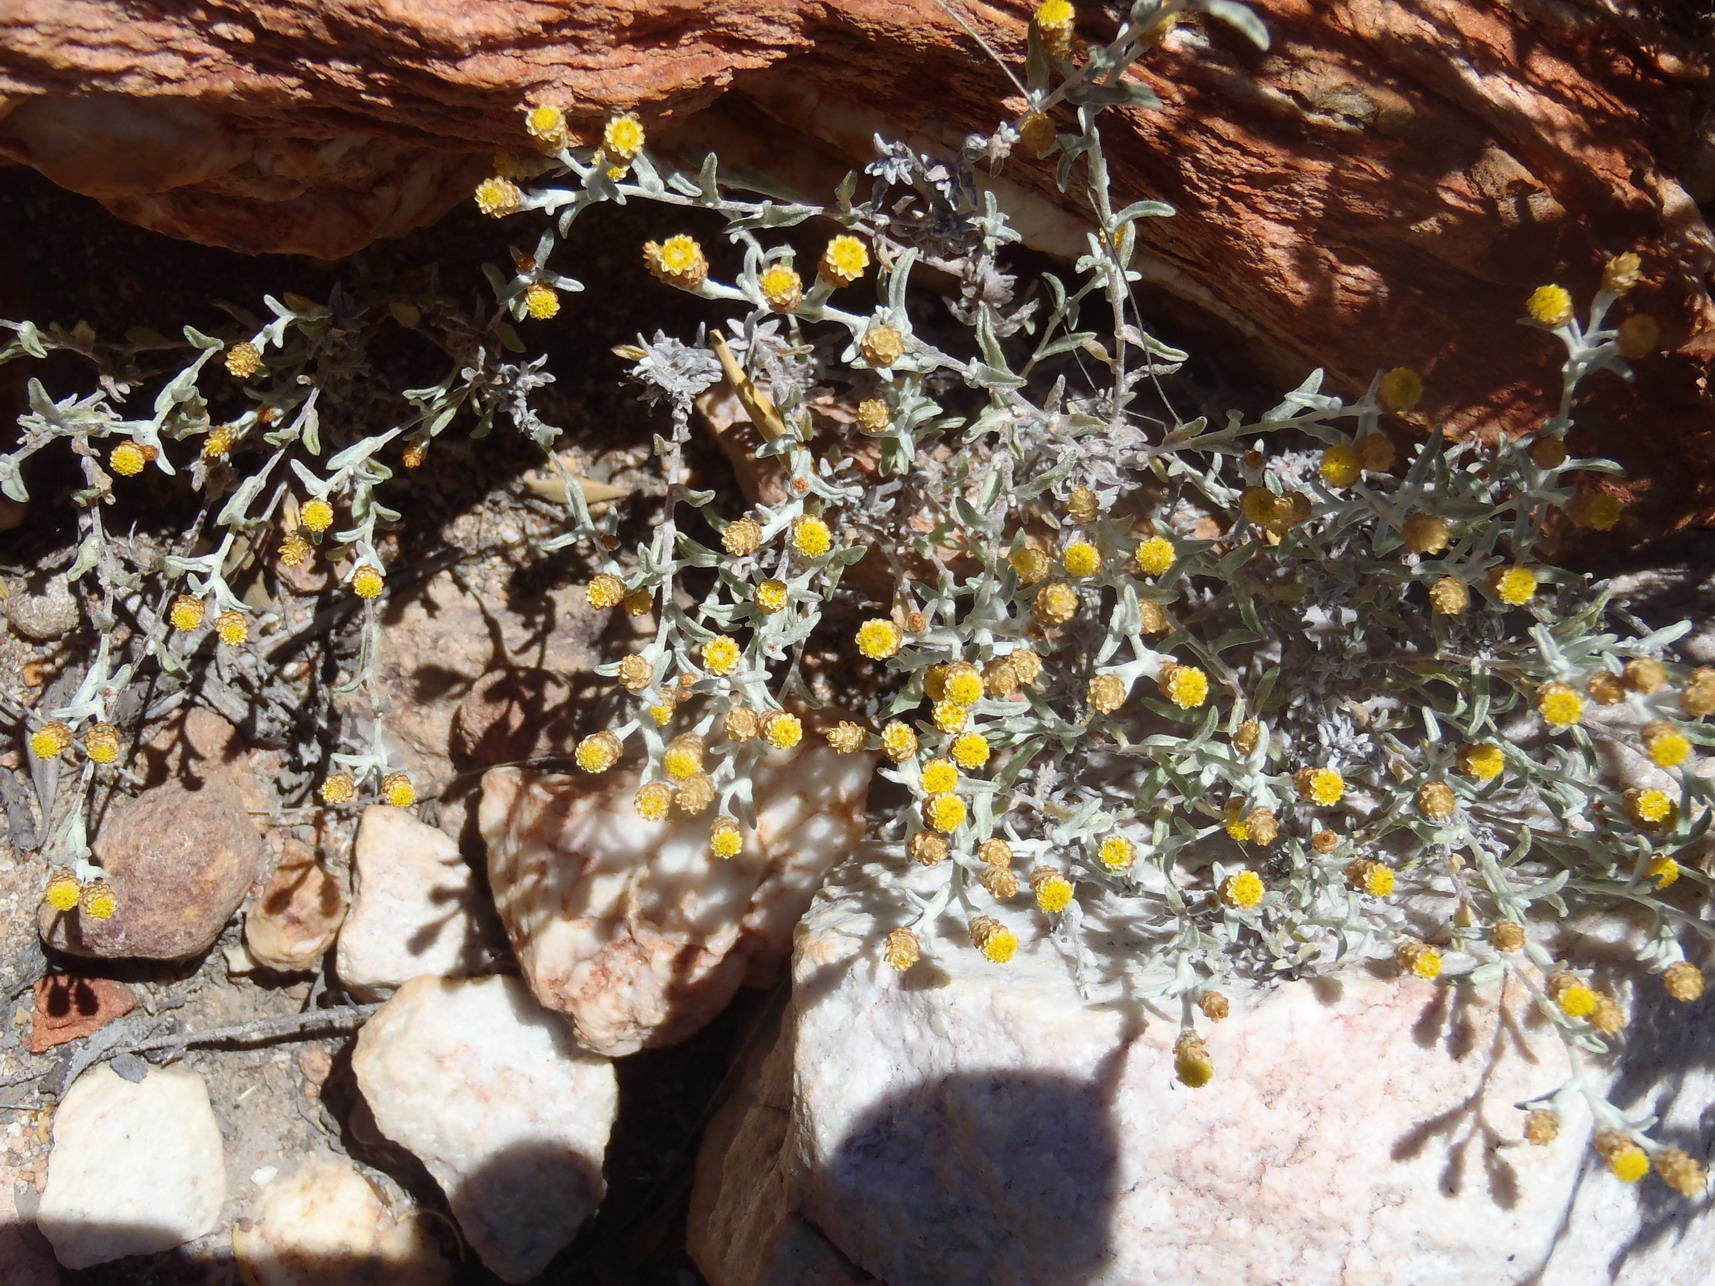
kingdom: Plantae
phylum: Tracheophyta
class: Magnoliopsida
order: Asterales
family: Asteraceae
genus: Helichrysum
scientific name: Helichrysum cylindriflorum
